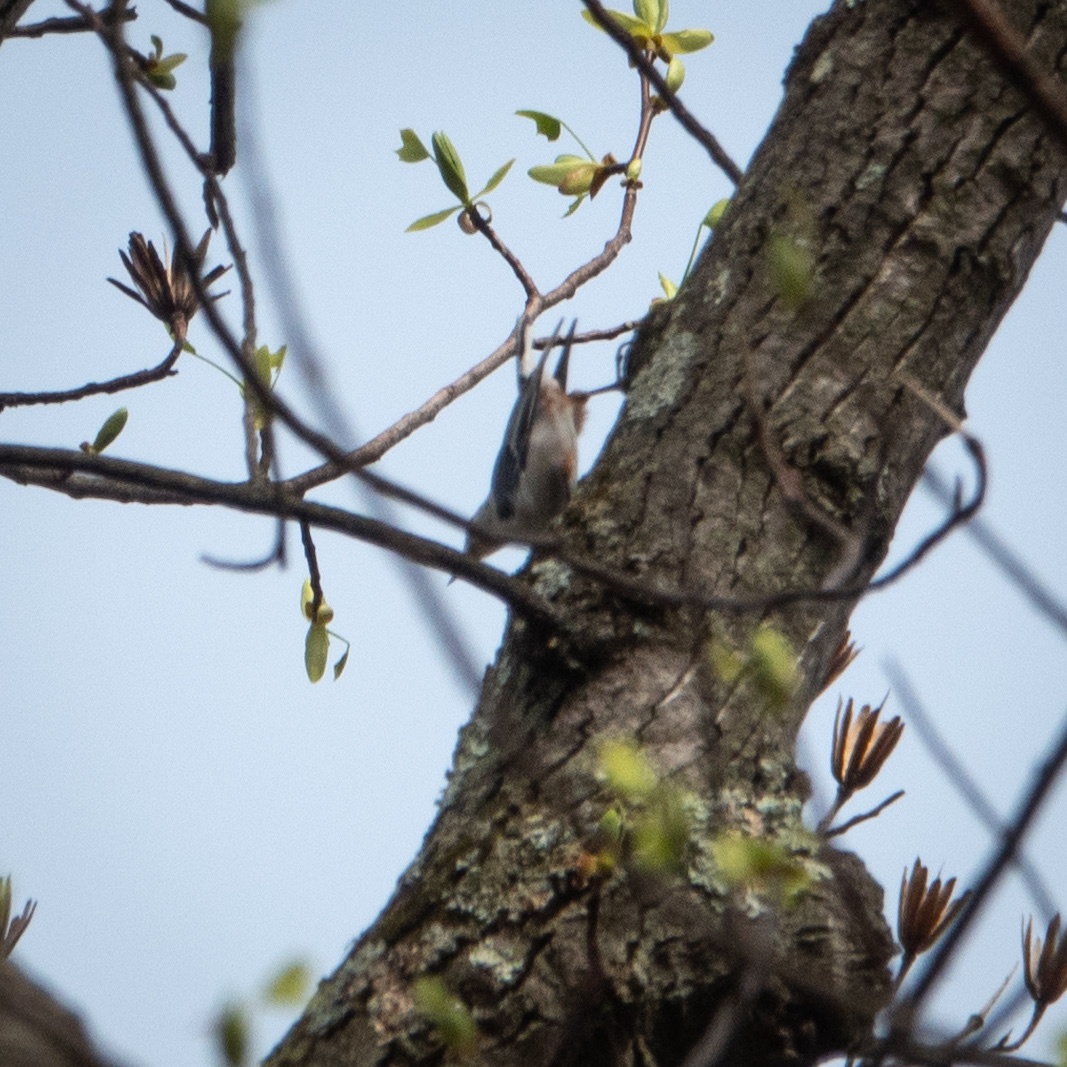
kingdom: Animalia
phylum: Chordata
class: Aves
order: Passeriformes
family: Sittidae
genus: Sitta
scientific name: Sitta carolinensis
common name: White-breasted nuthatch
